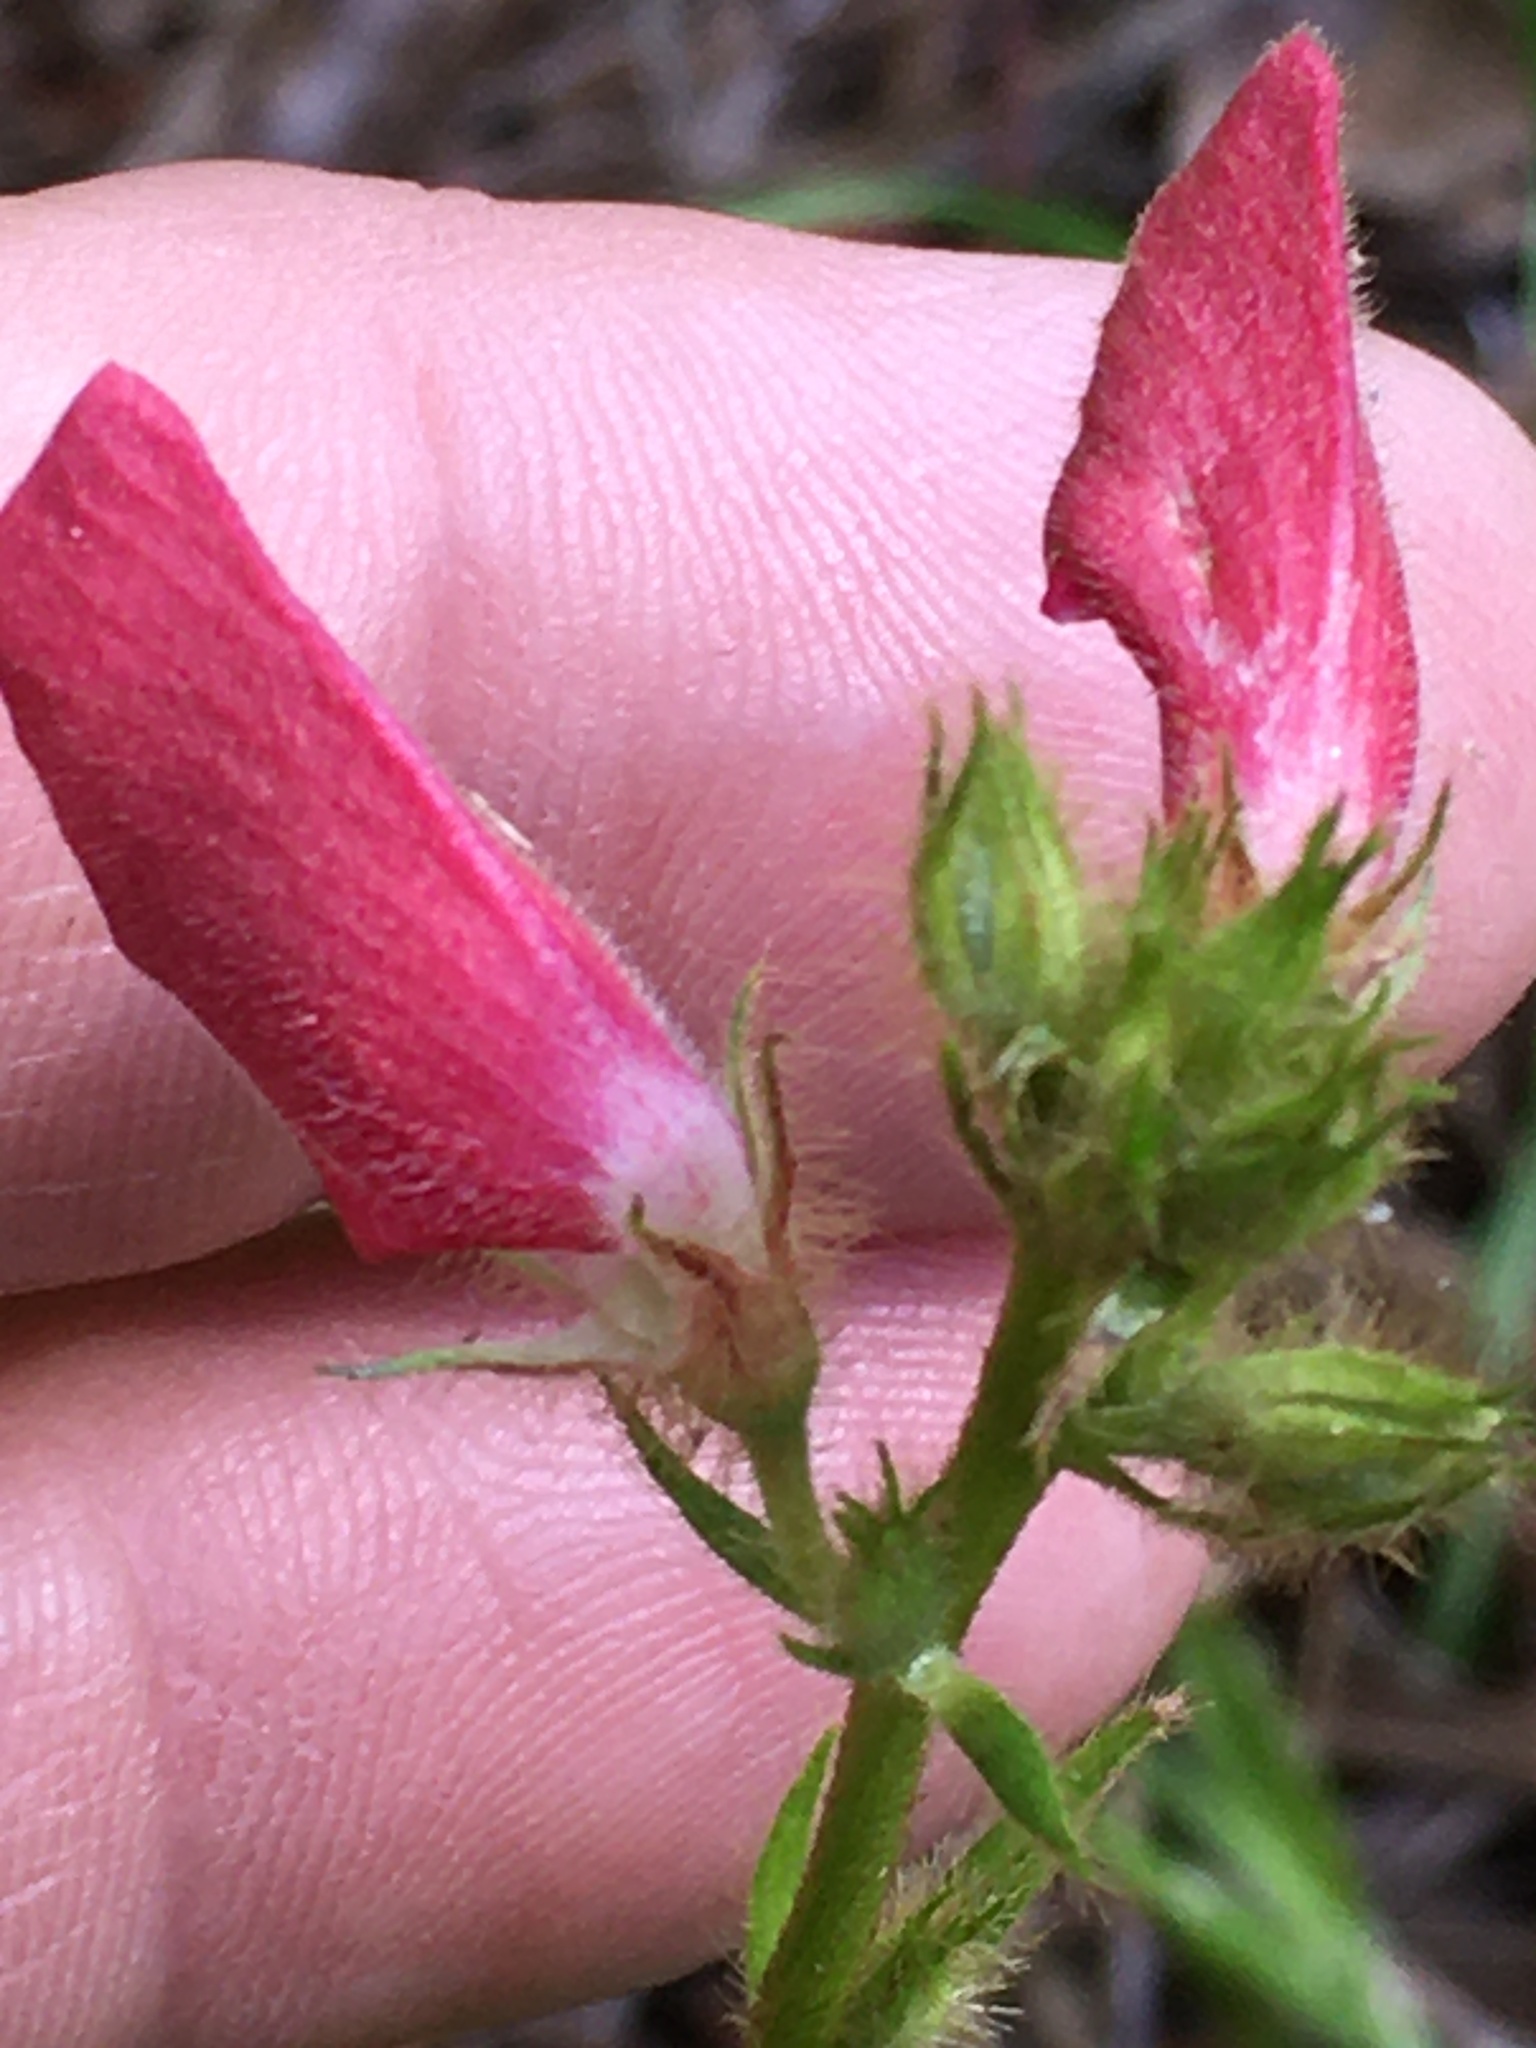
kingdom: Plantae
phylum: Tracheophyta
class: Magnoliopsida
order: Fabales
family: Fabaceae
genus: Tephrosia
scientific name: Tephrosia spicata
